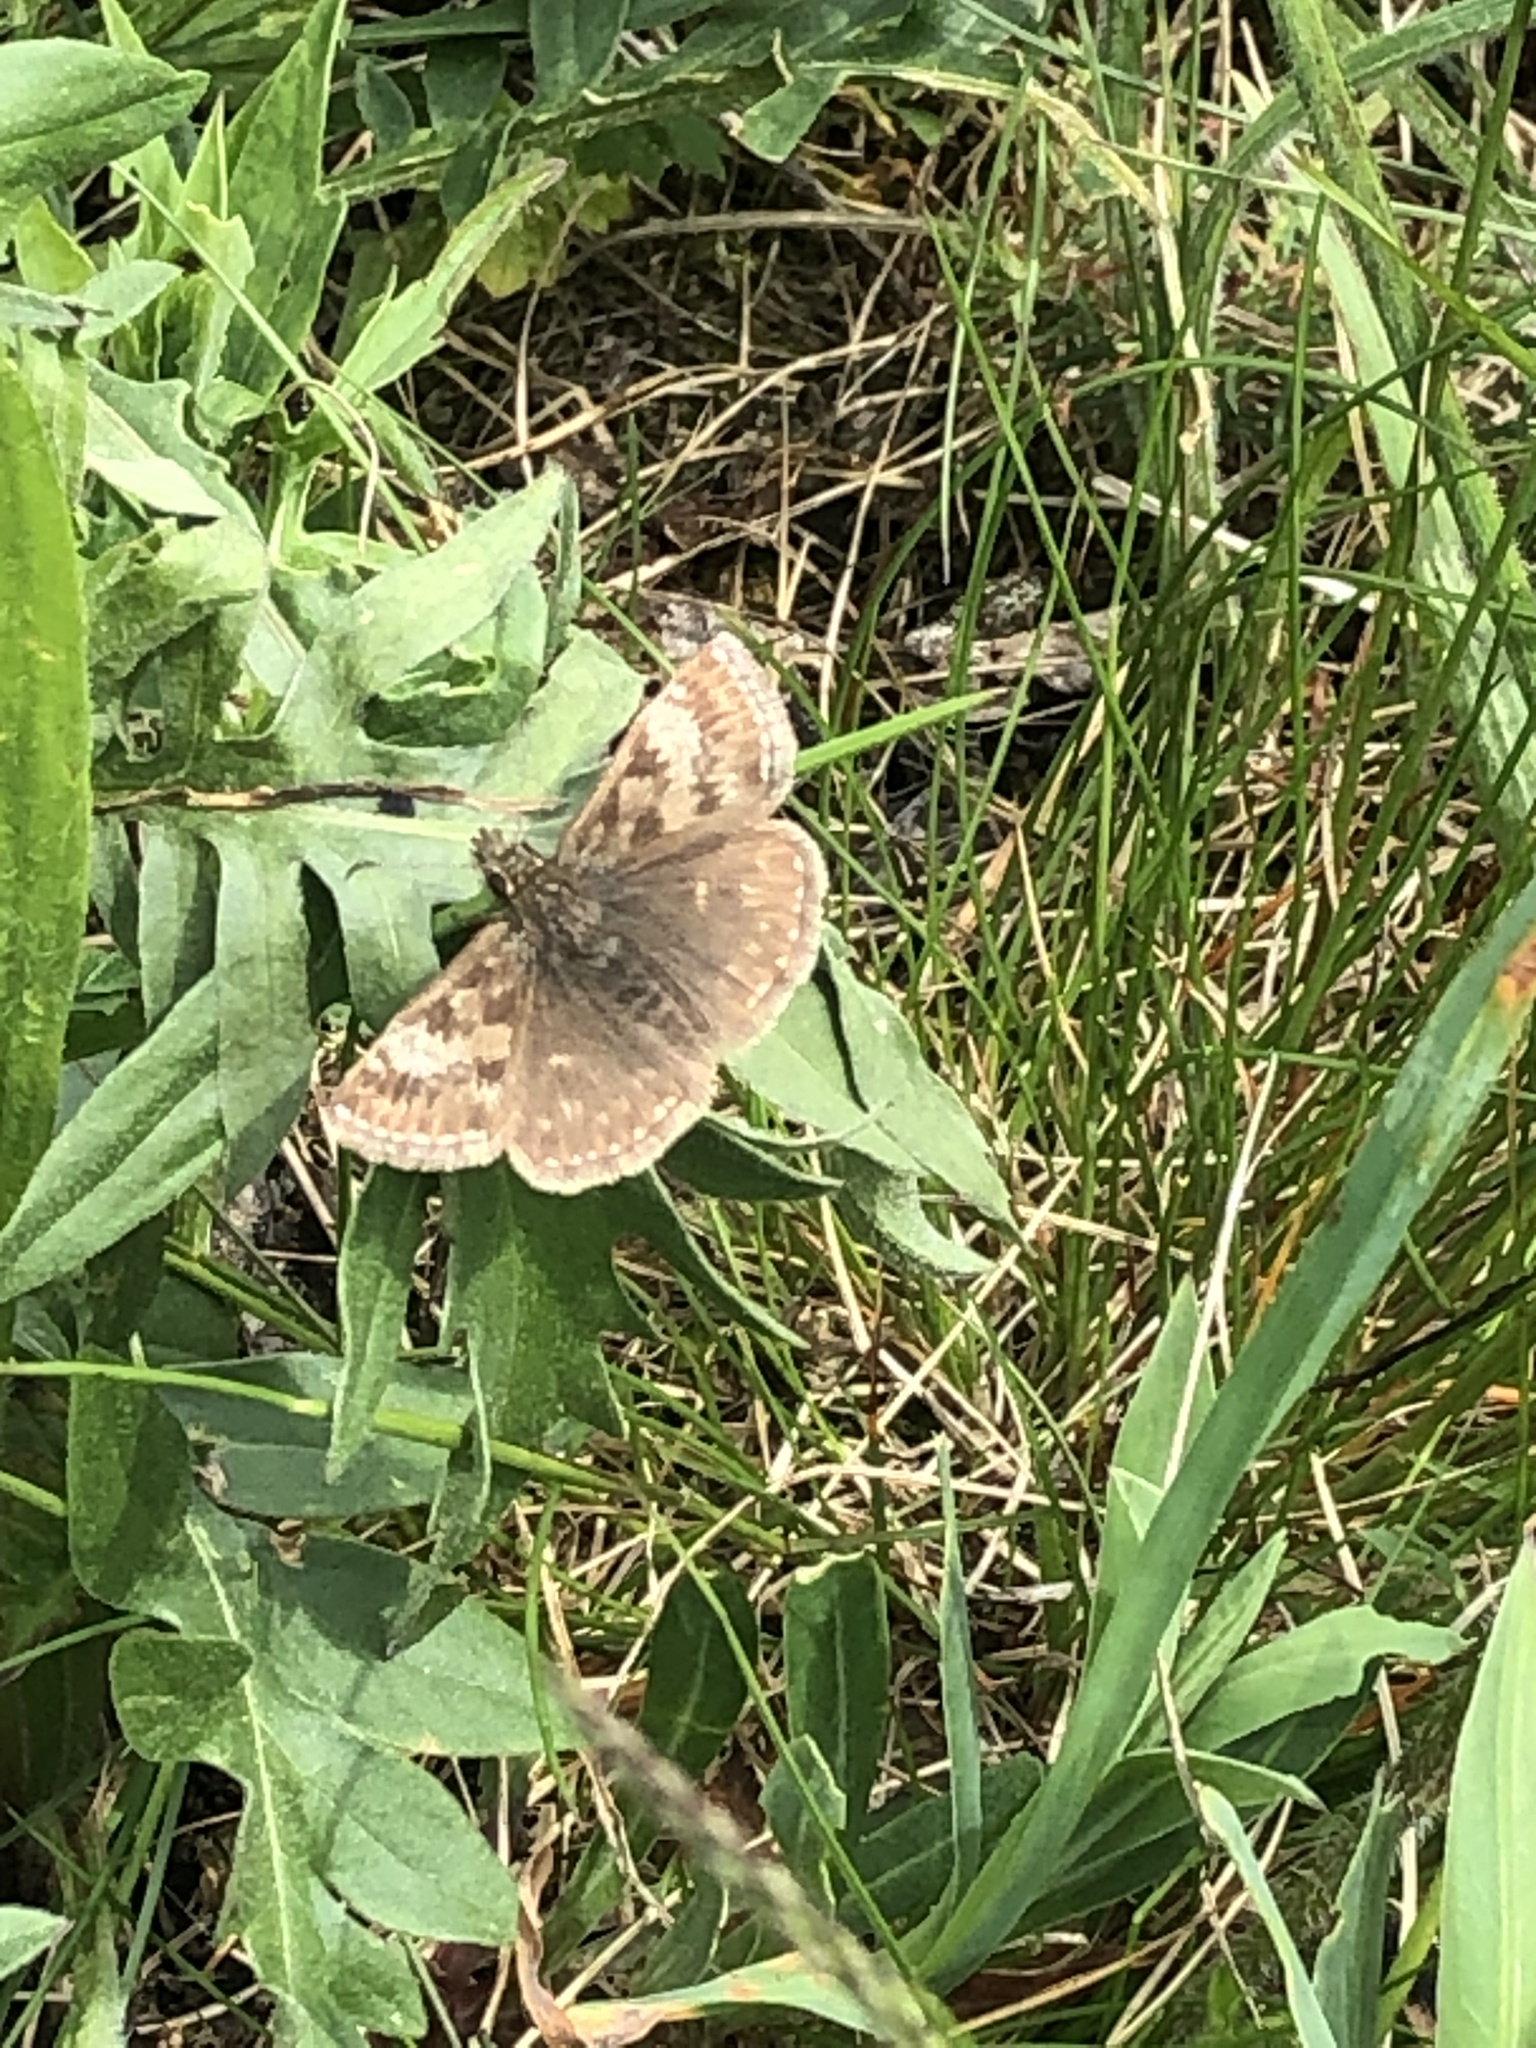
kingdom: Animalia
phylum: Arthropoda
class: Insecta
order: Lepidoptera
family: Hesperiidae
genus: Erynnis
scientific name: Erynnis tages
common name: Dingy skipper
